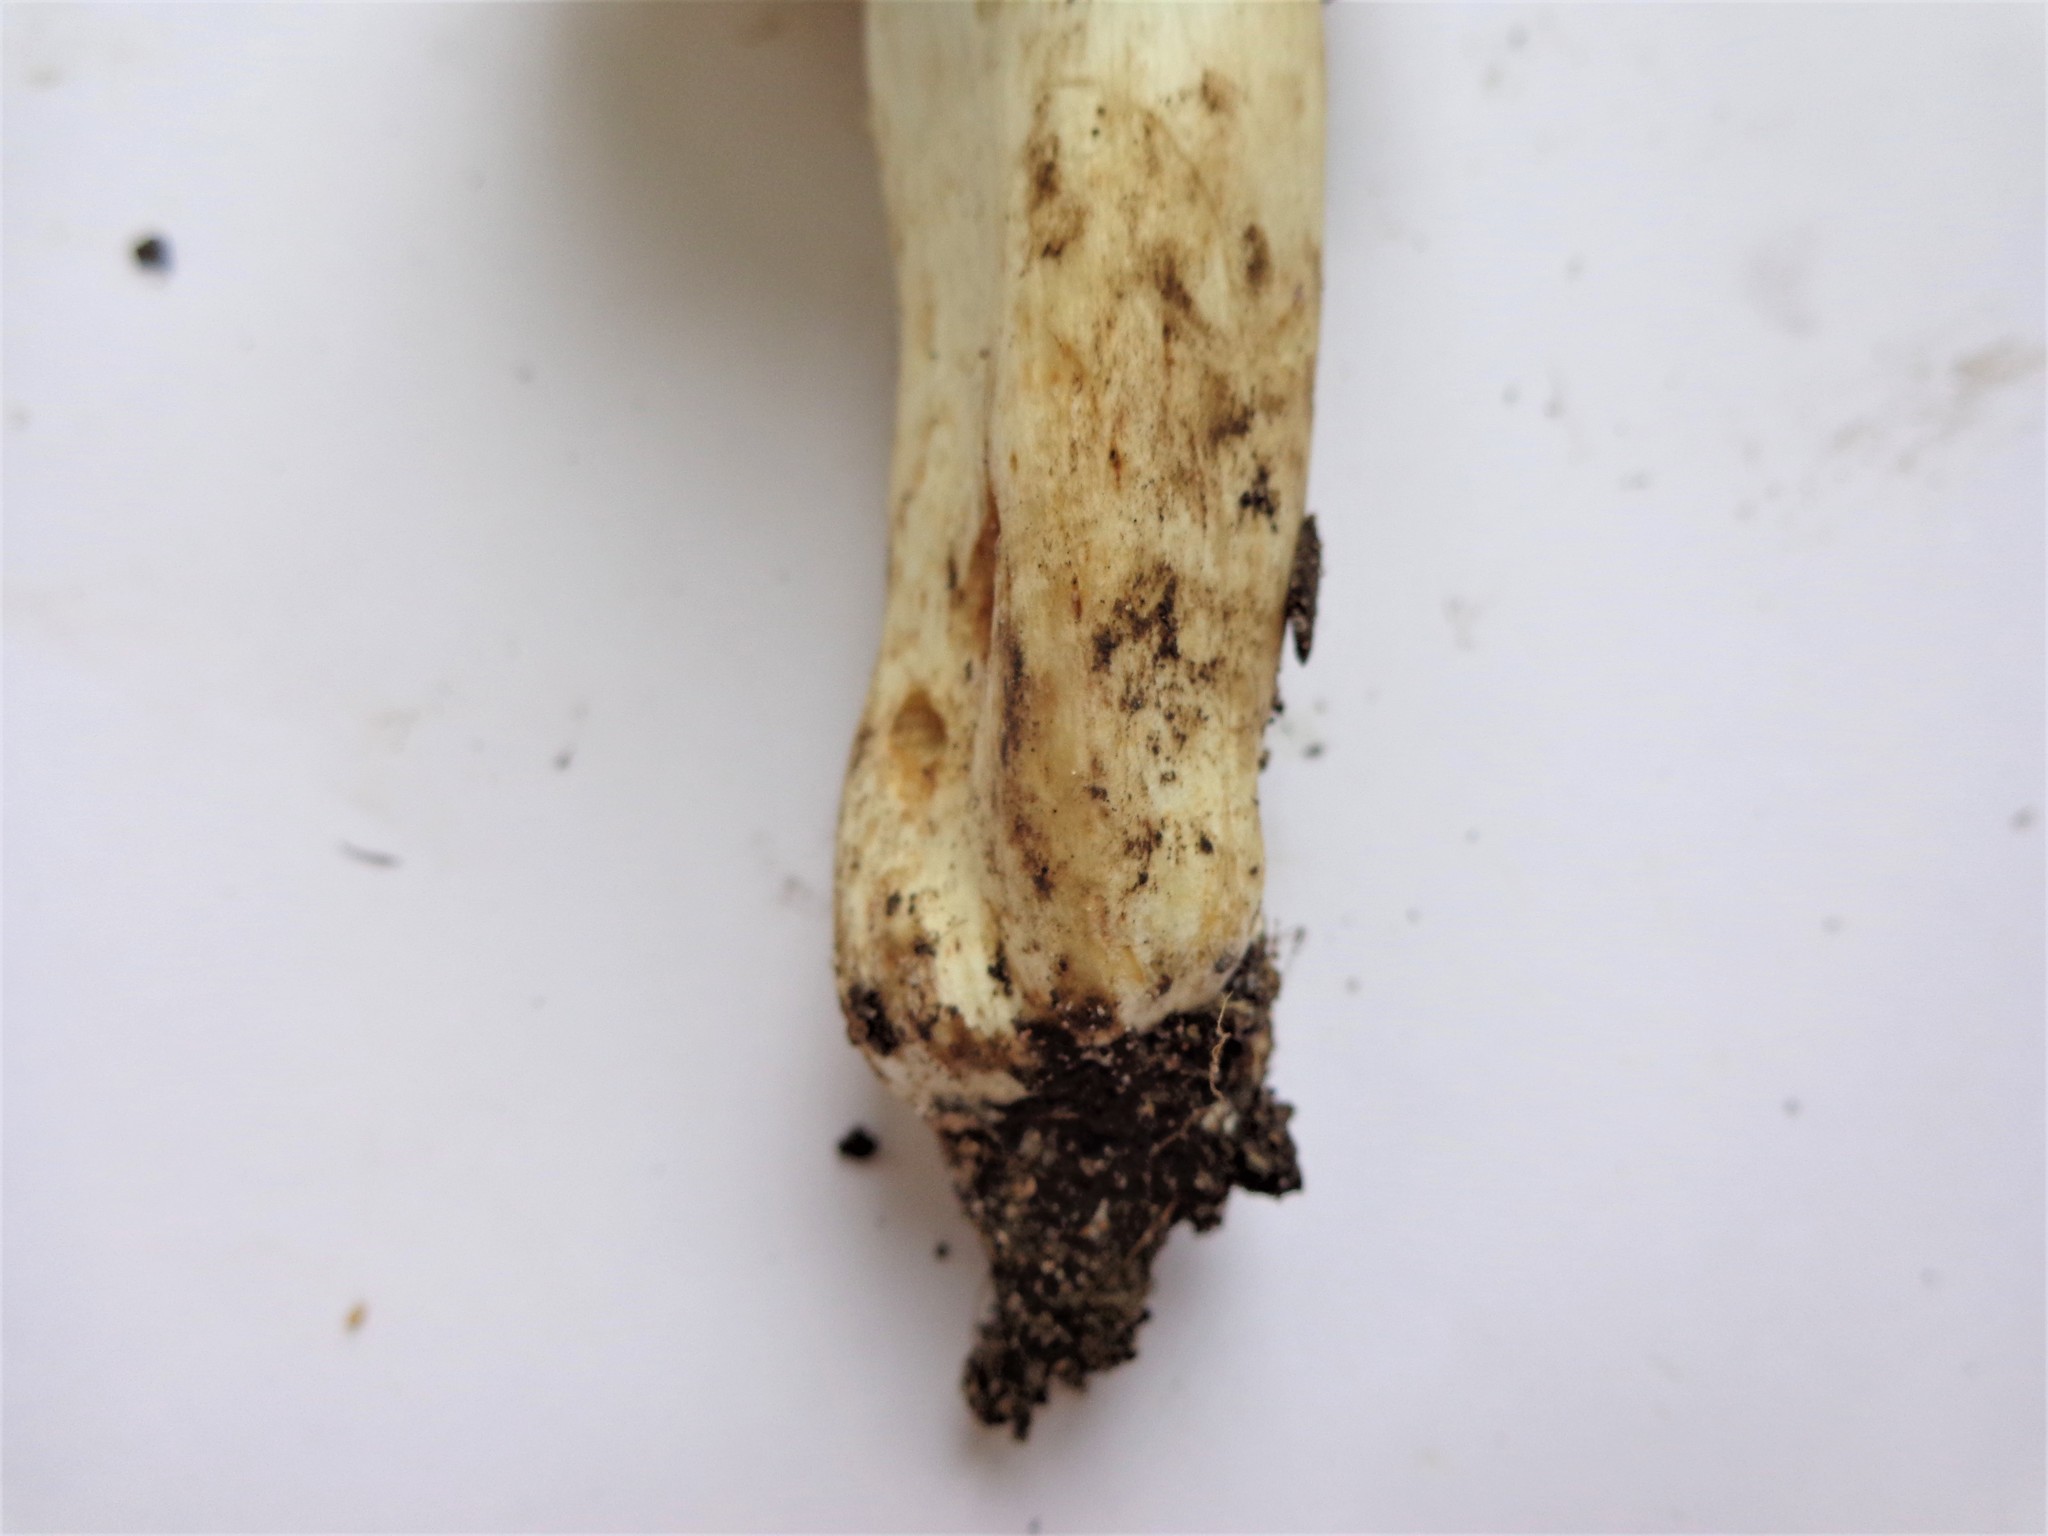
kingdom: Fungi
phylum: Basidiomycota
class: Agaricomycetes
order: Russulales
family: Russulaceae
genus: Russula
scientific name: Russula foetens
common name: Foetid russula
